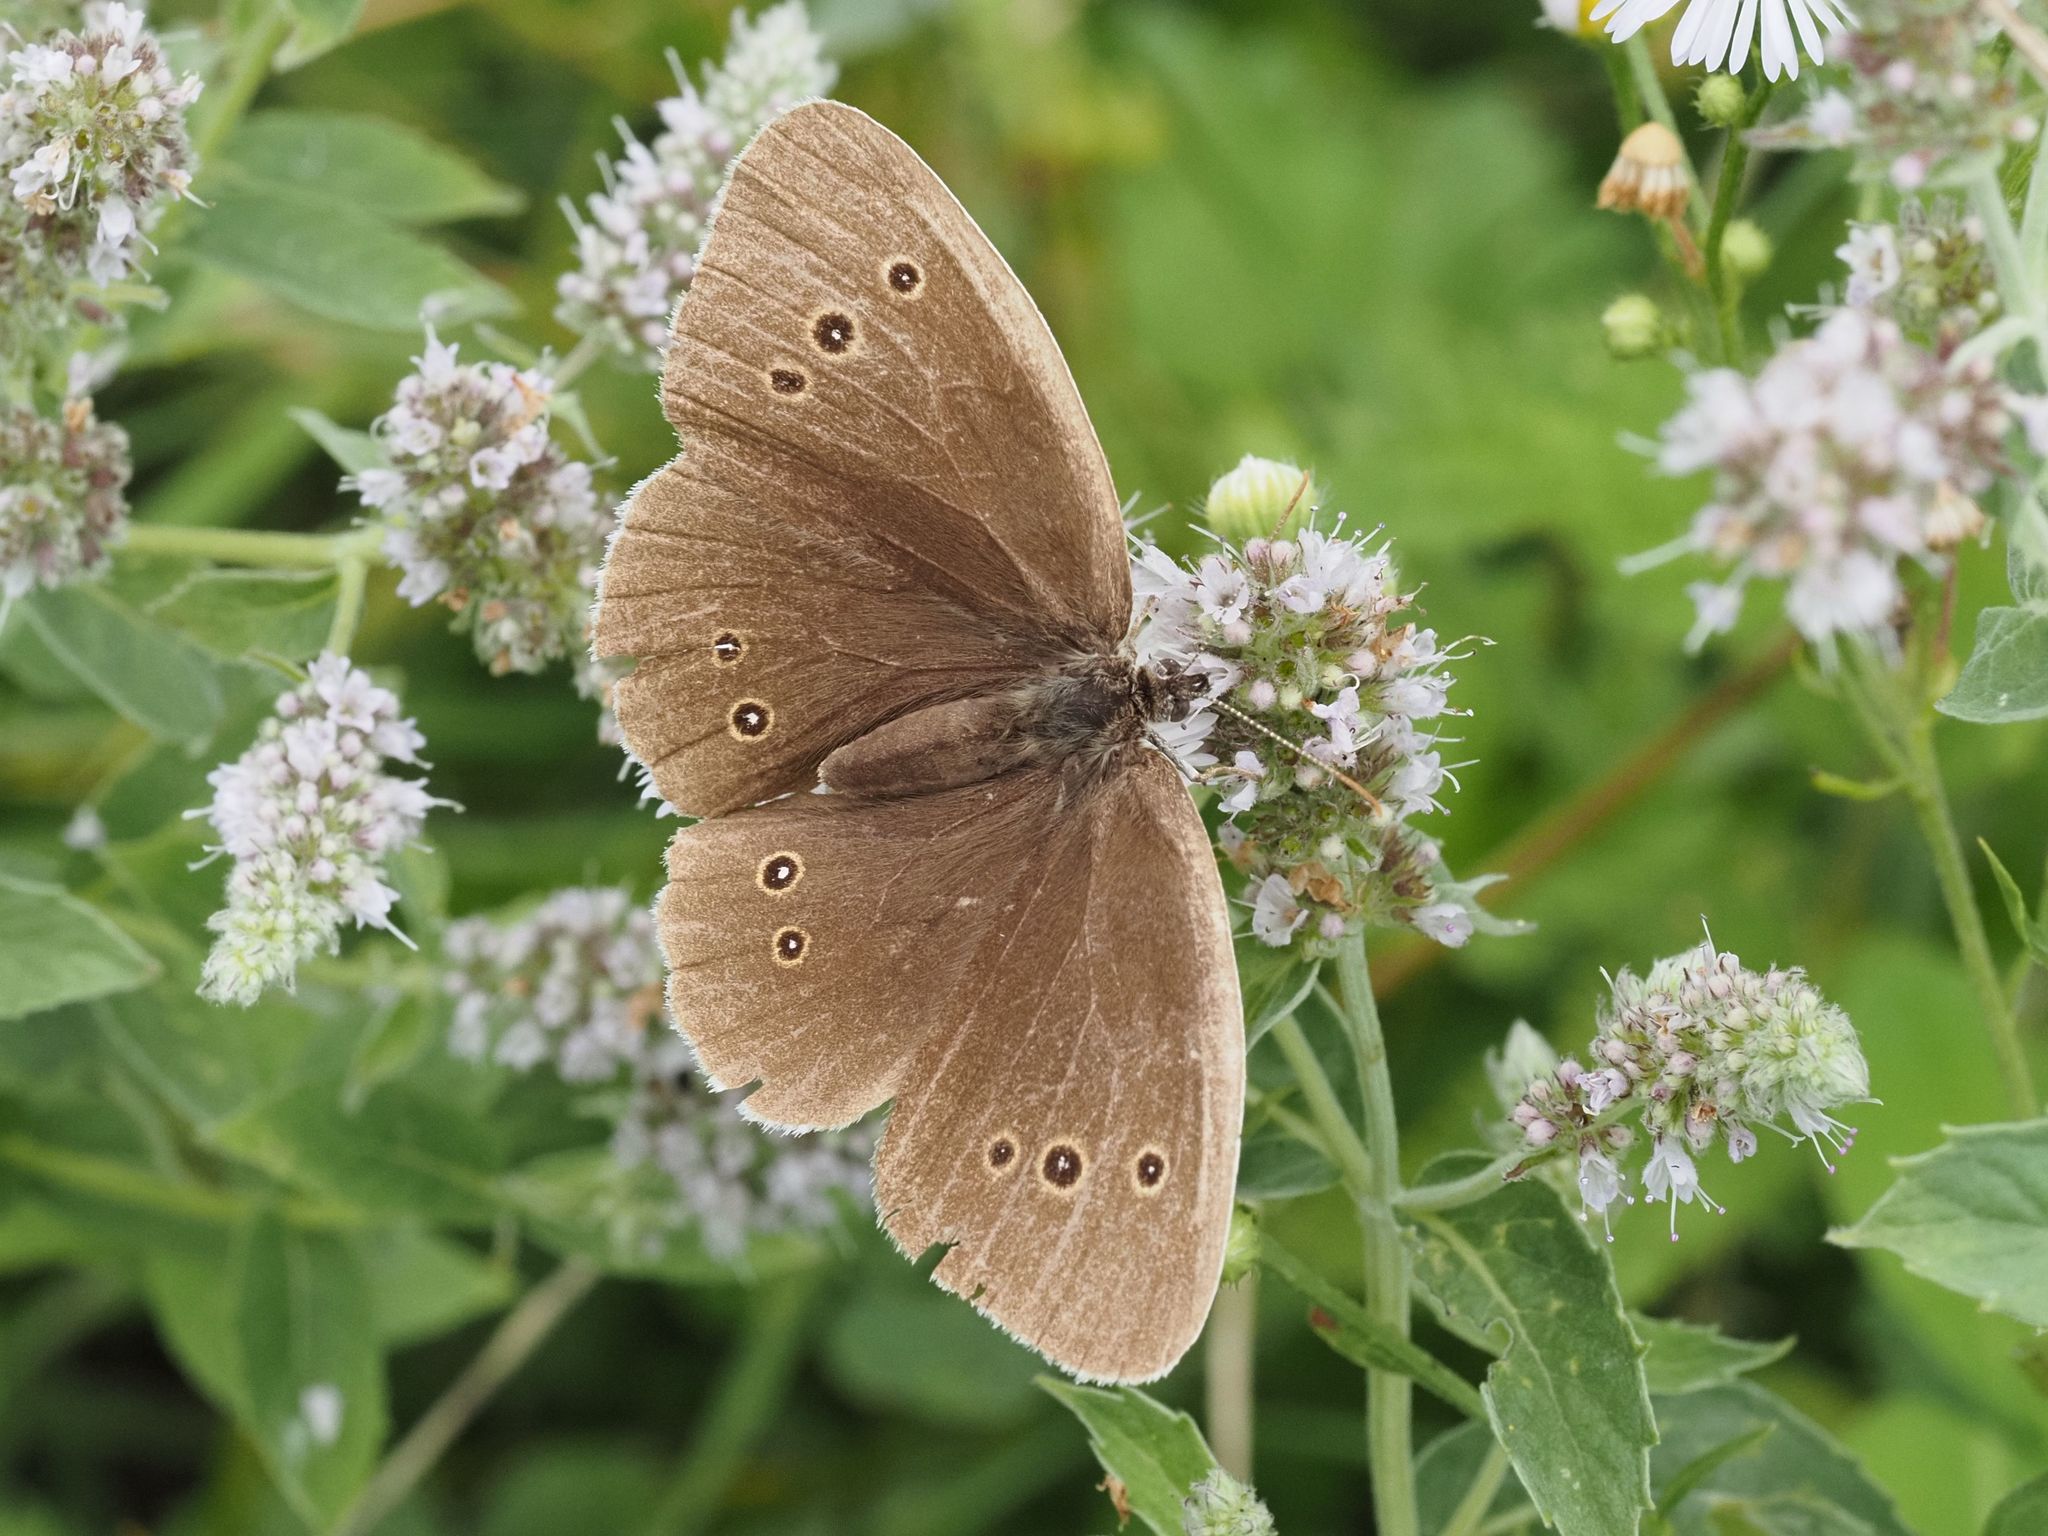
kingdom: Animalia
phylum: Arthropoda
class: Insecta
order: Lepidoptera
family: Nymphalidae
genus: Aphantopus
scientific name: Aphantopus hyperantus
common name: Ringlet
